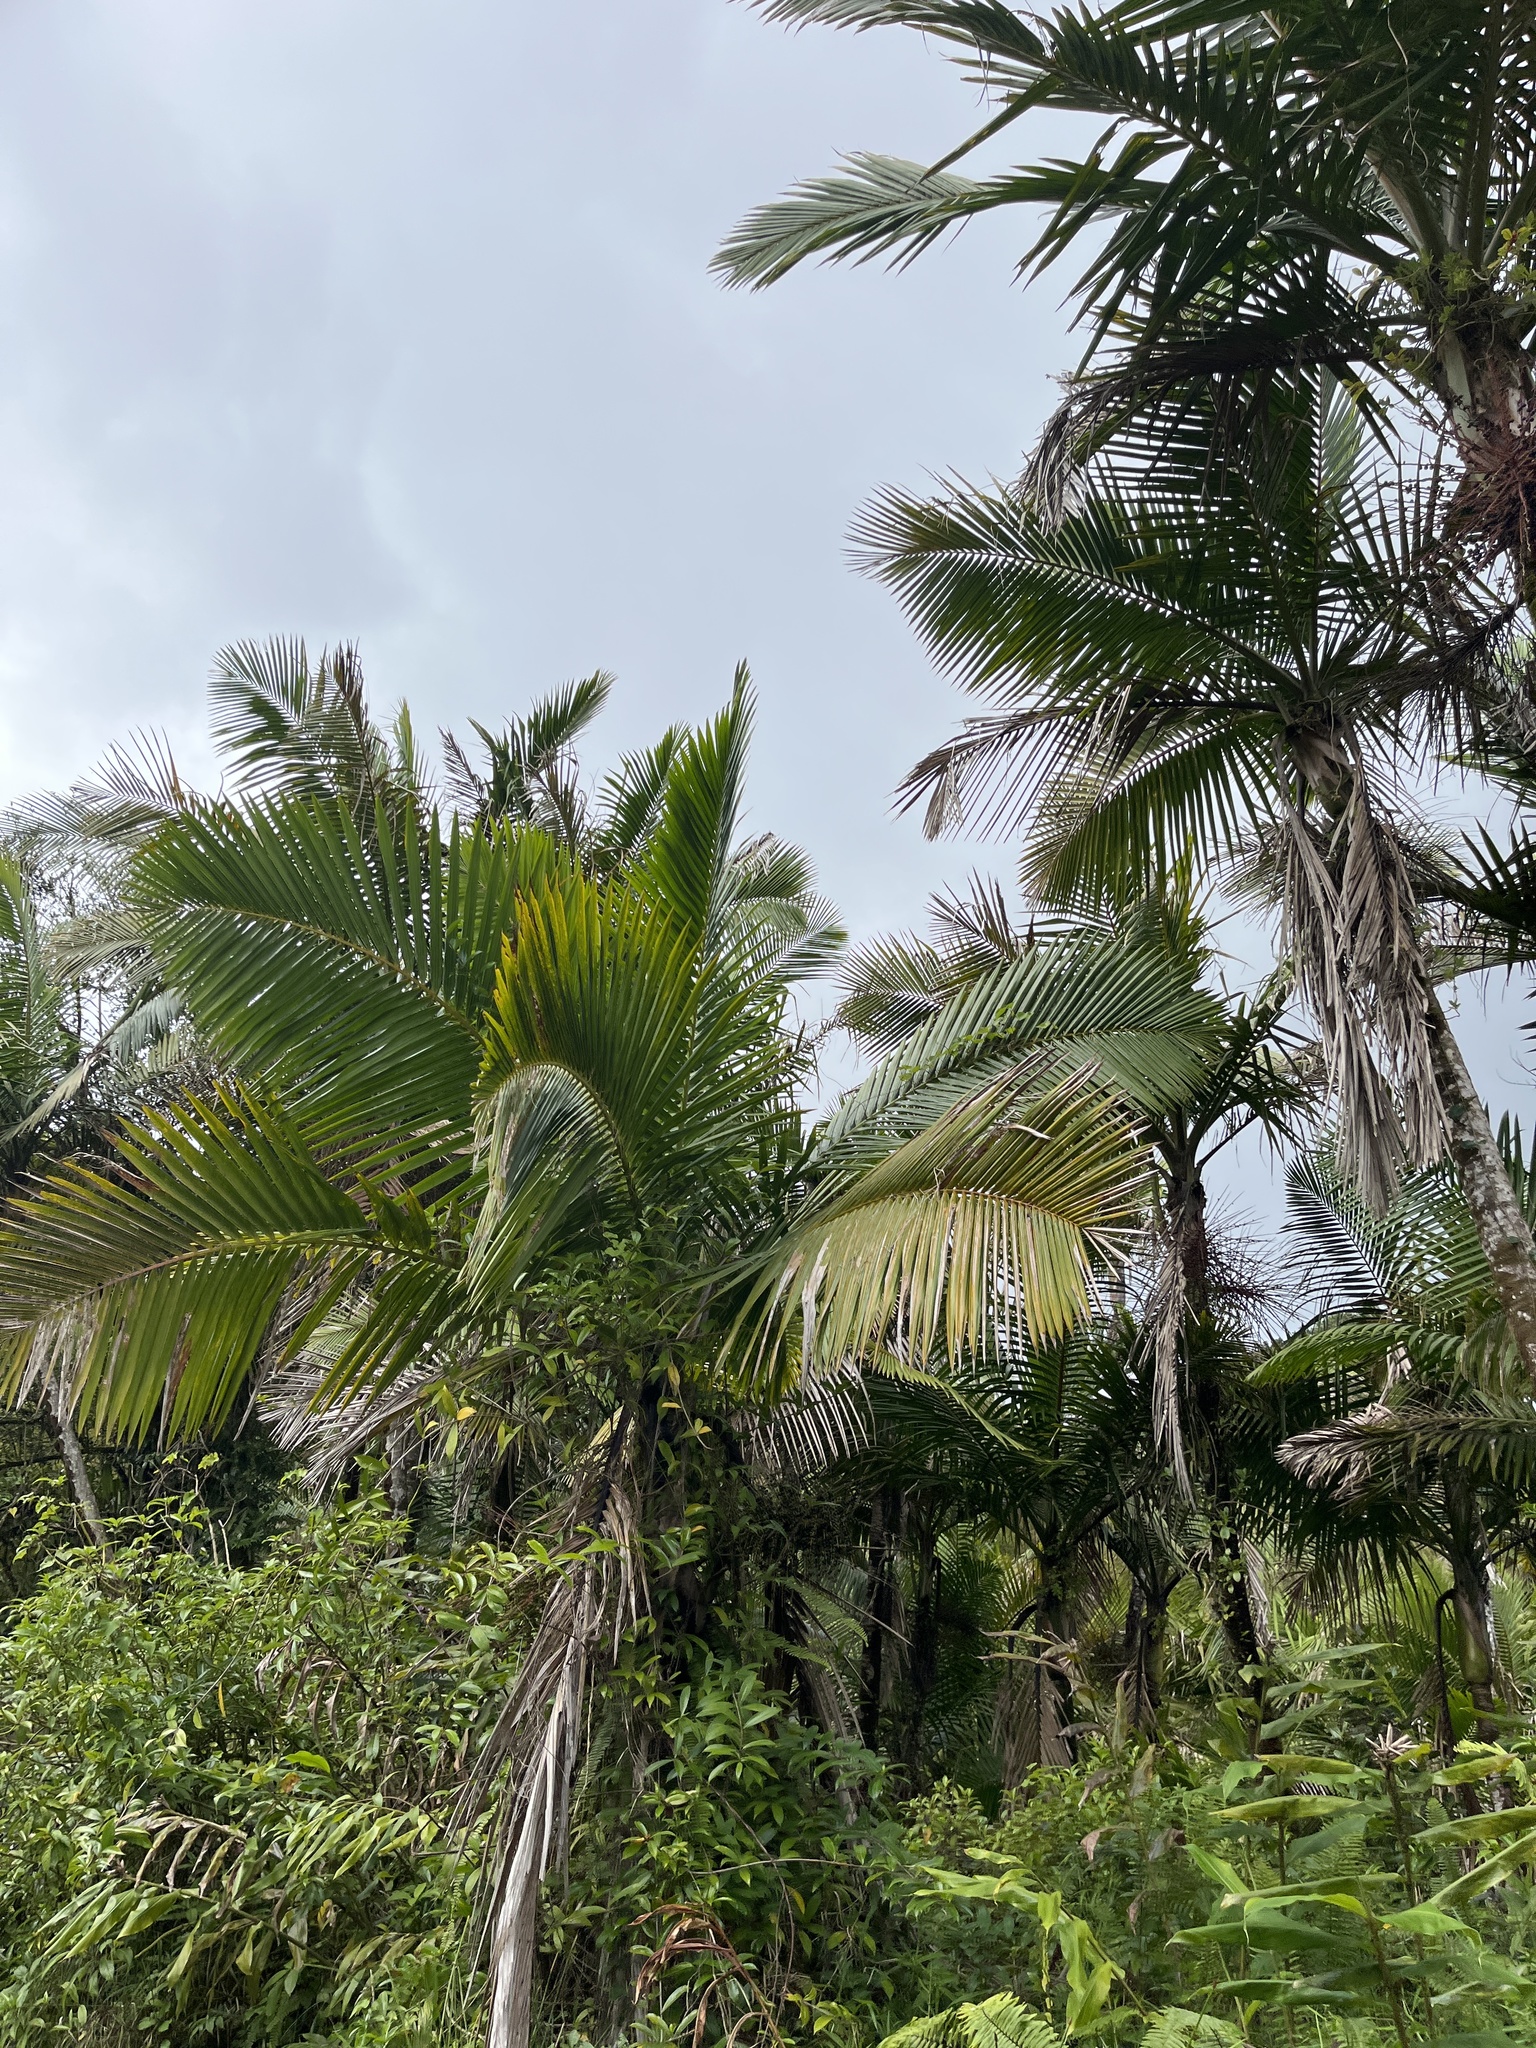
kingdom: Plantae
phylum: Tracheophyta
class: Liliopsida
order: Arecales
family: Arecaceae
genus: Prestoea
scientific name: Prestoea acuminata
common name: Sierran palm
